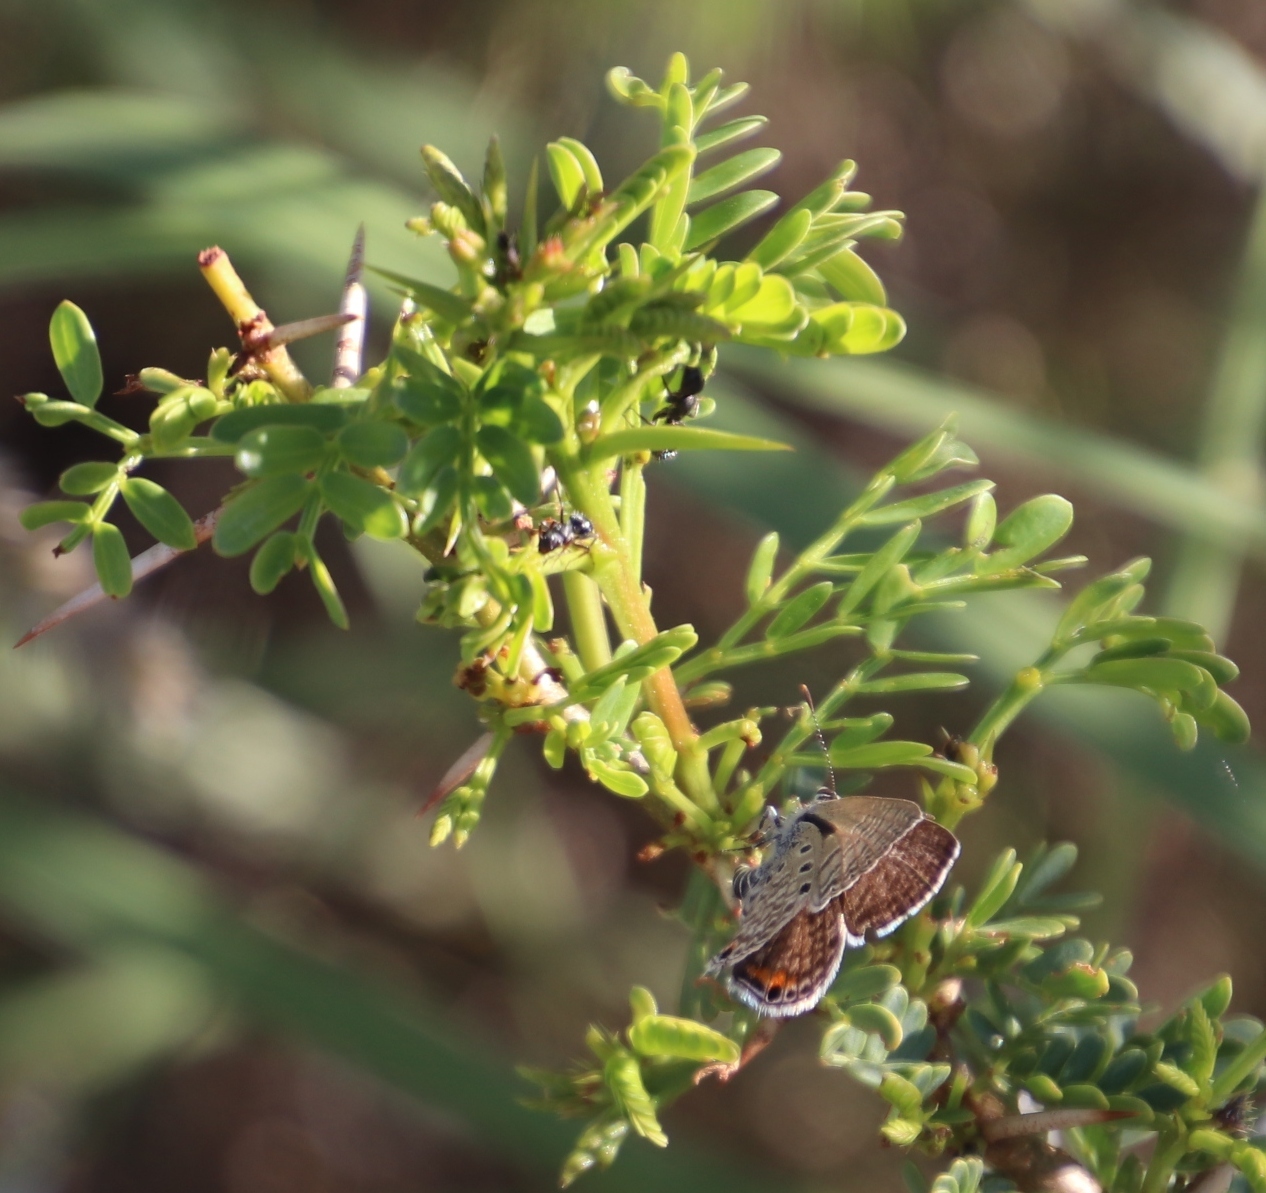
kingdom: Animalia
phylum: Arthropoda
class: Insecta
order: Lepidoptera
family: Lycaenidae
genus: Anthene
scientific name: Anthene amarah
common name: Black-striped hairtail
